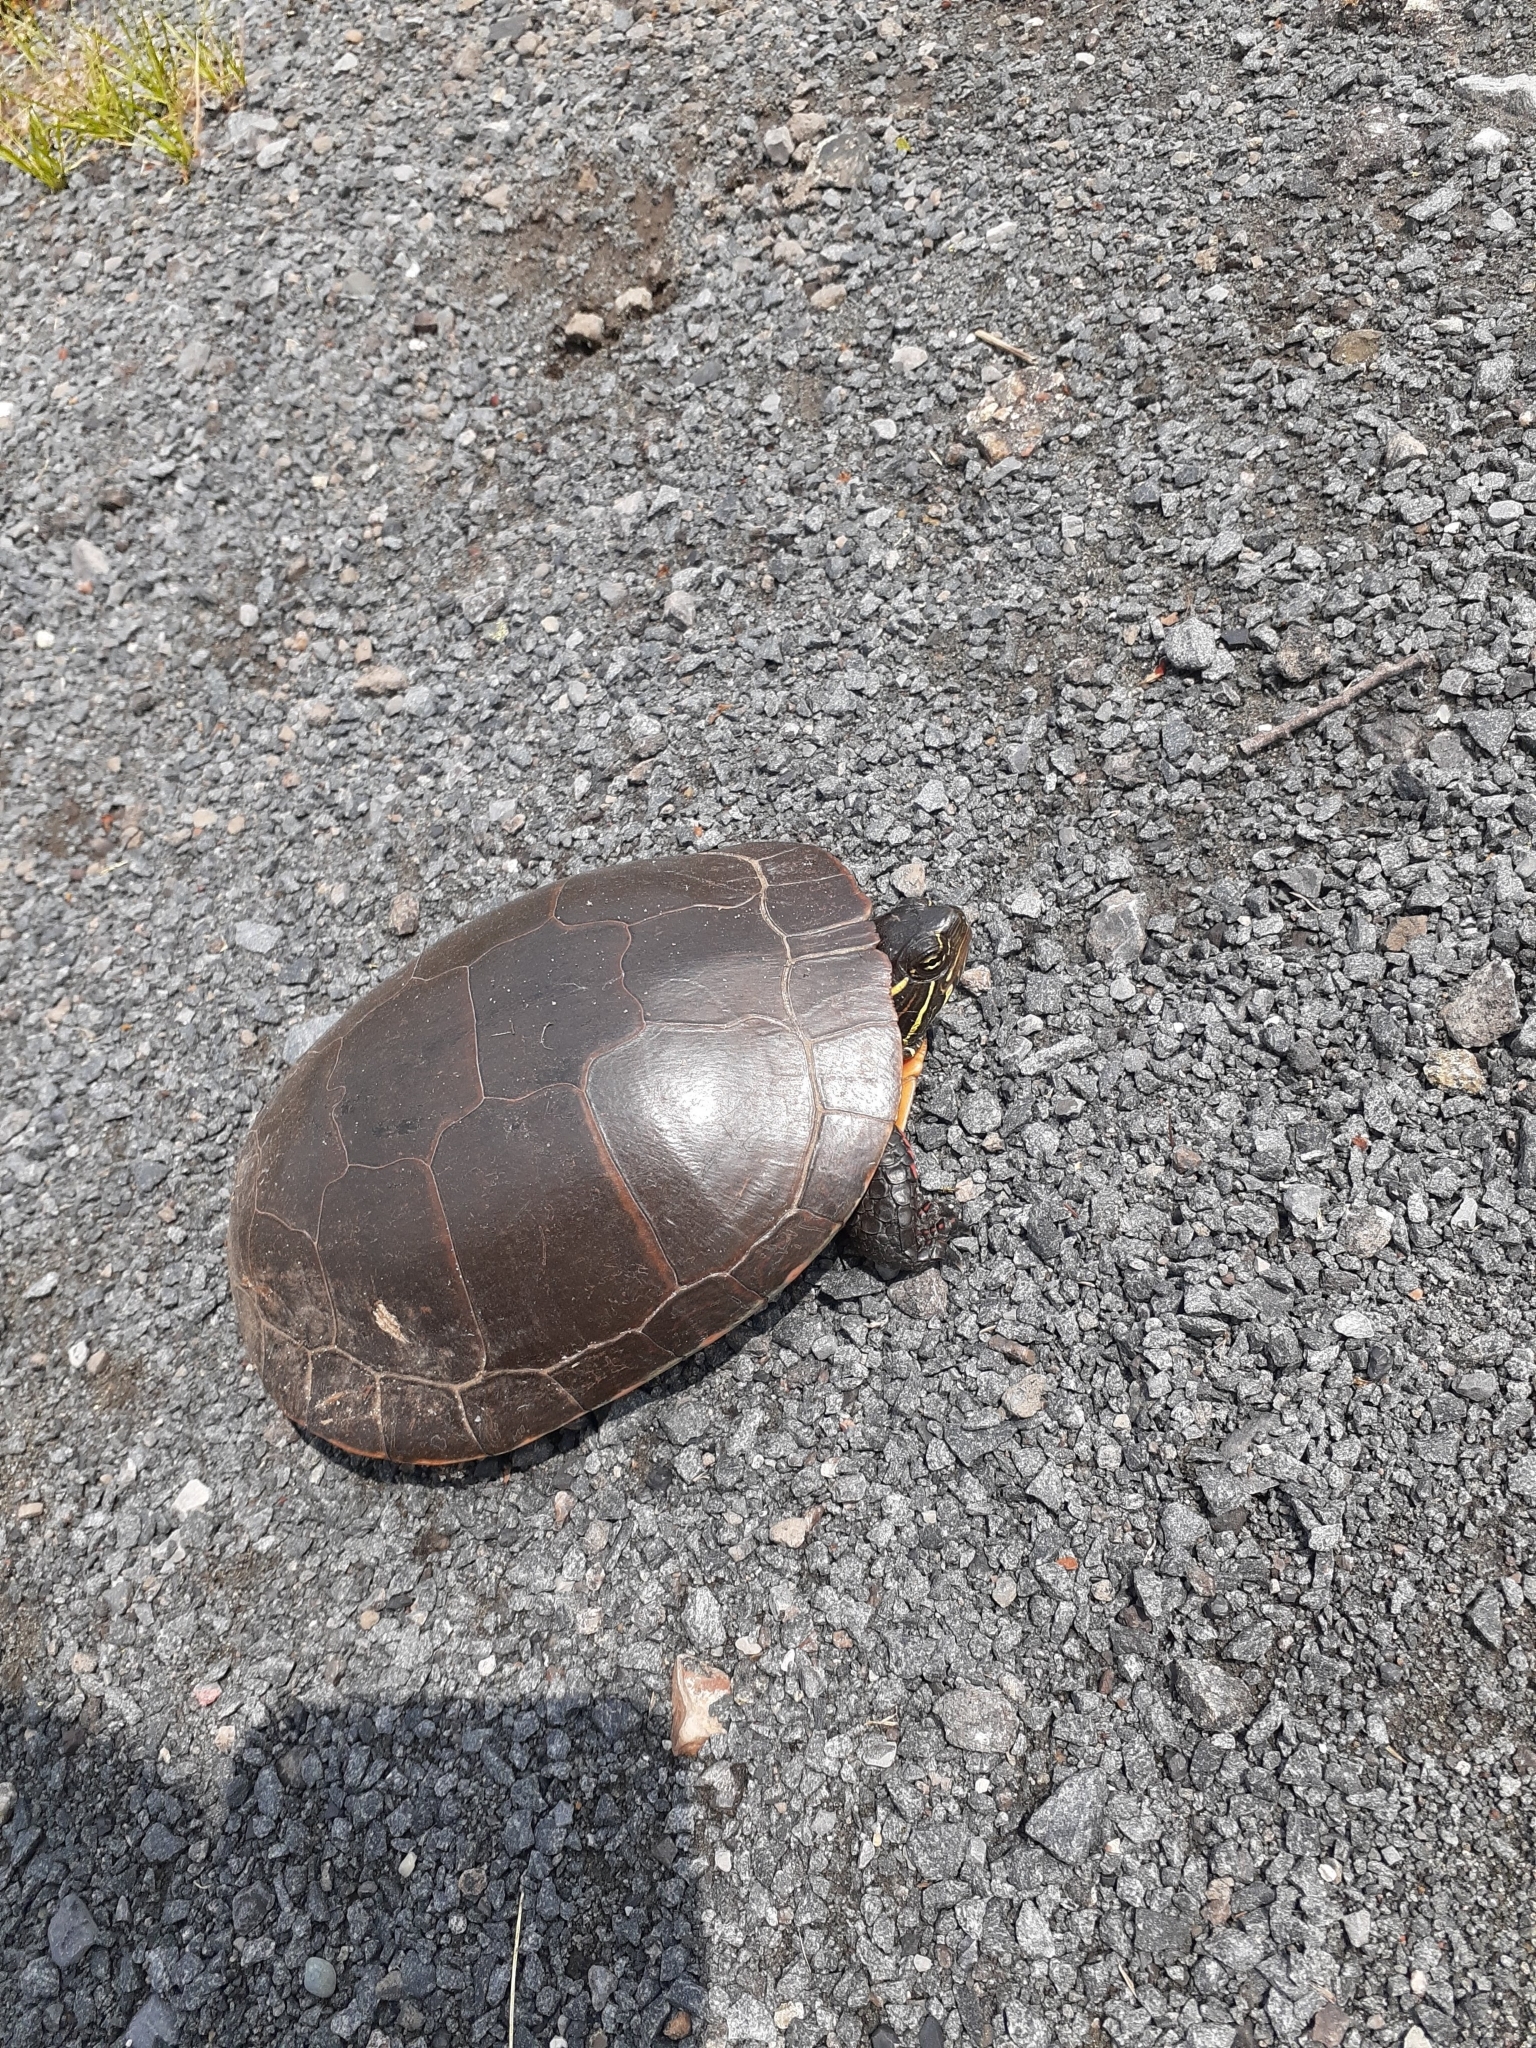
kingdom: Animalia
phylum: Chordata
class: Testudines
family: Emydidae
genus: Chrysemys
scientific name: Chrysemys picta
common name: Painted turtle
